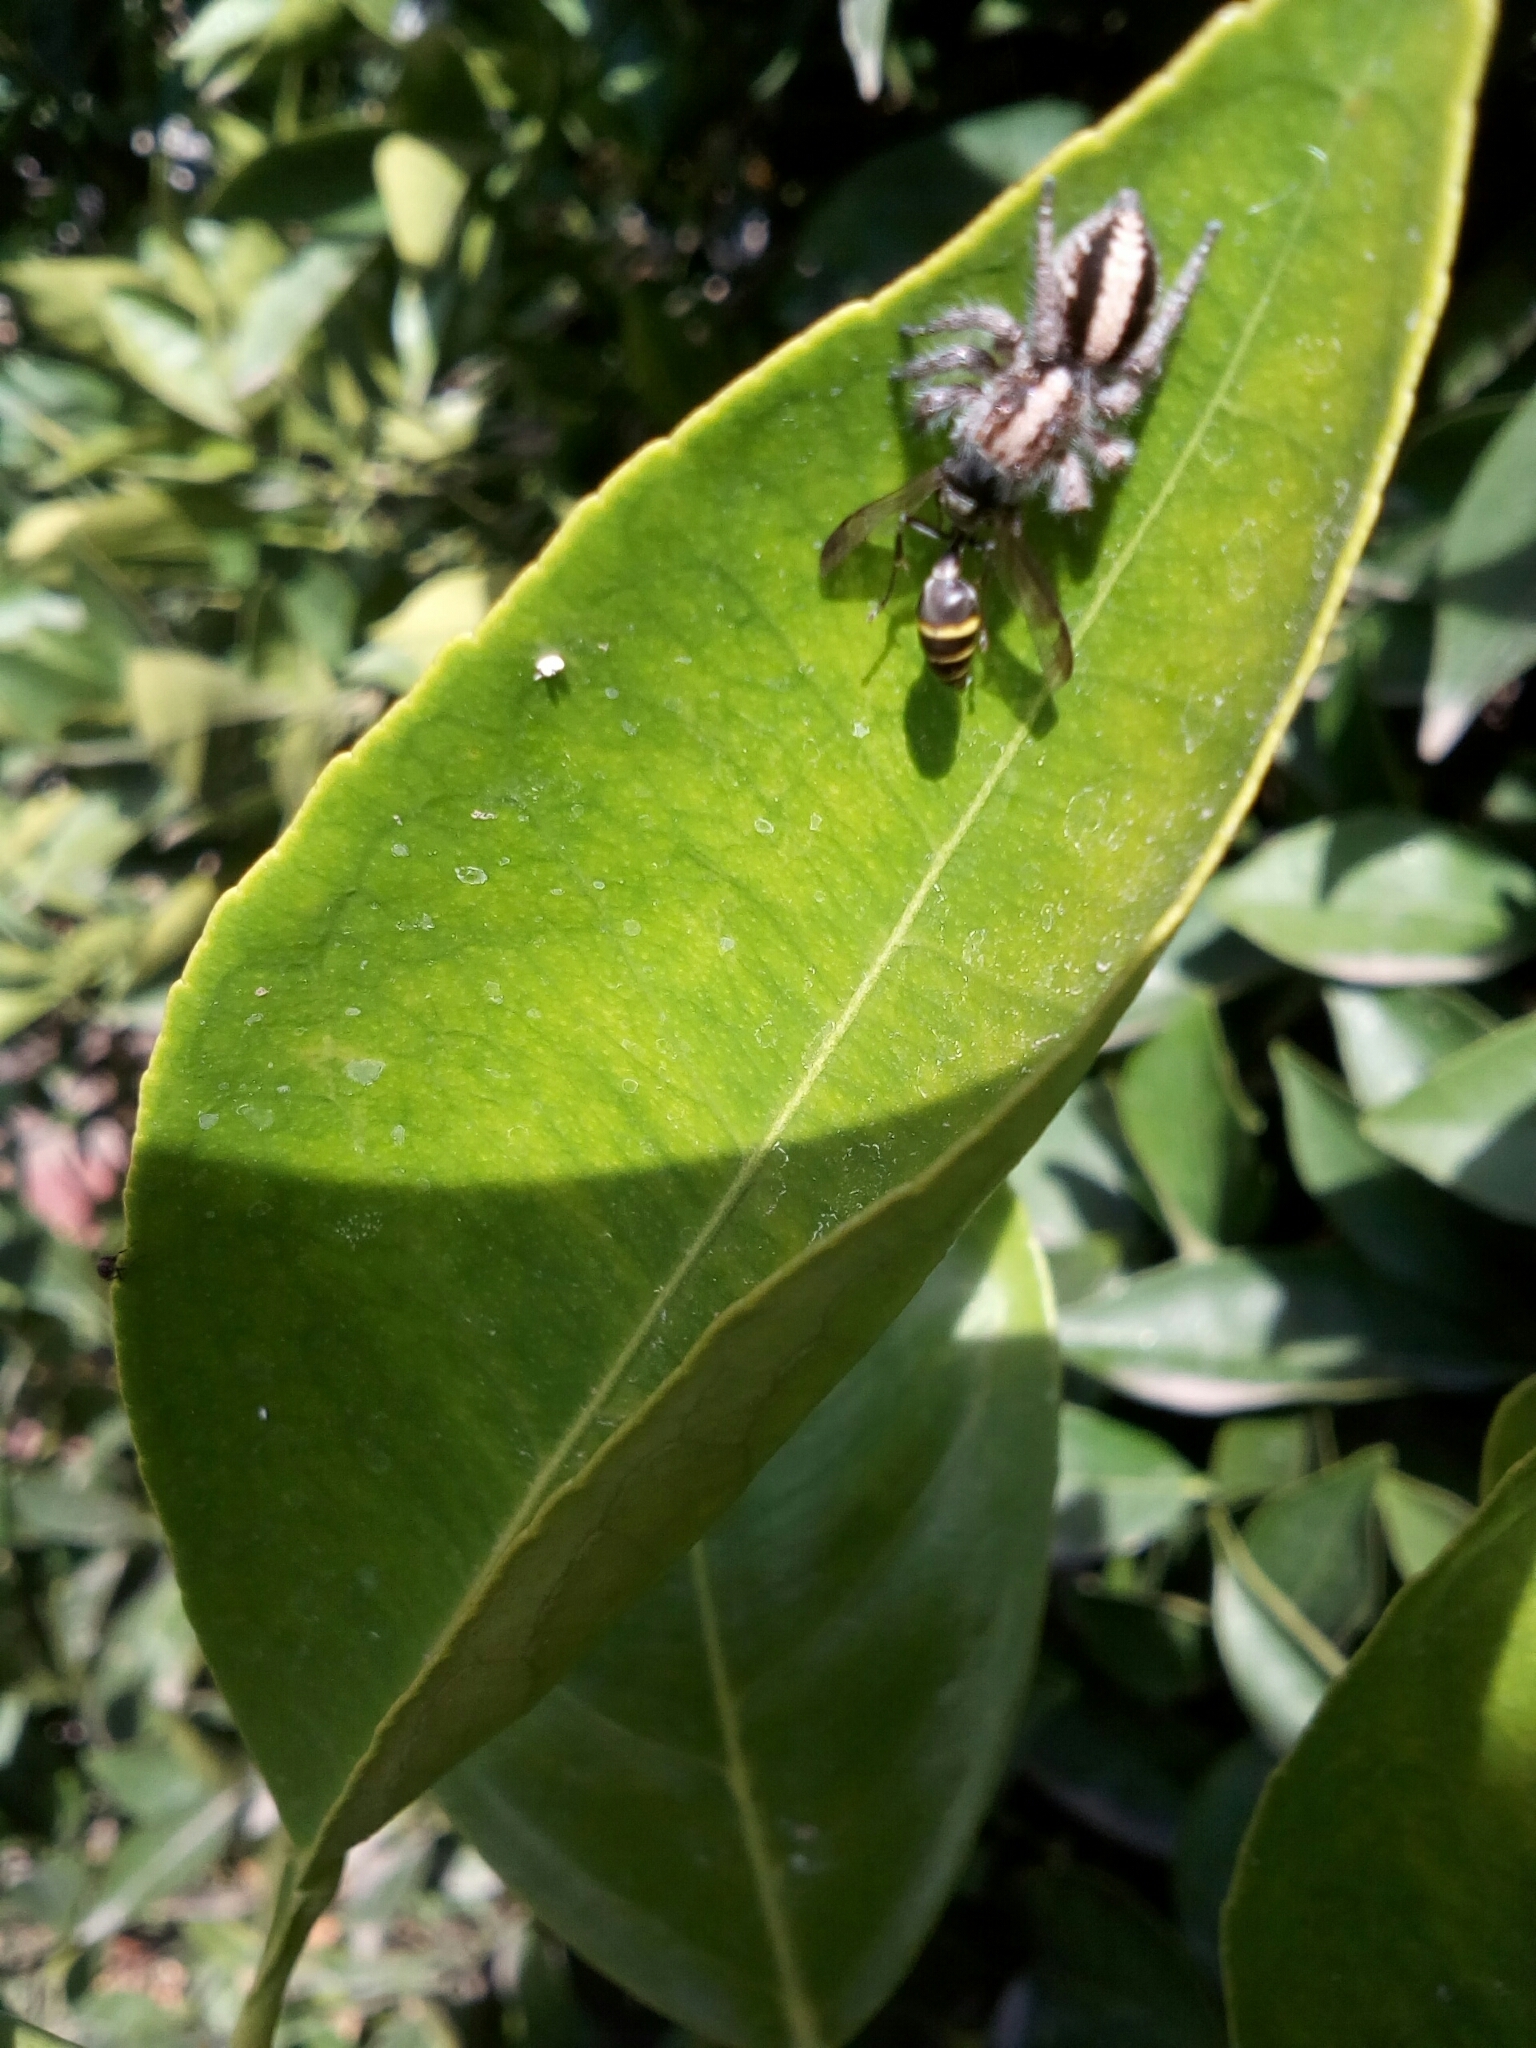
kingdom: Animalia
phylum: Arthropoda
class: Insecta
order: Hymenoptera
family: Eumenidae
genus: Polybia
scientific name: Polybia scutellaris
